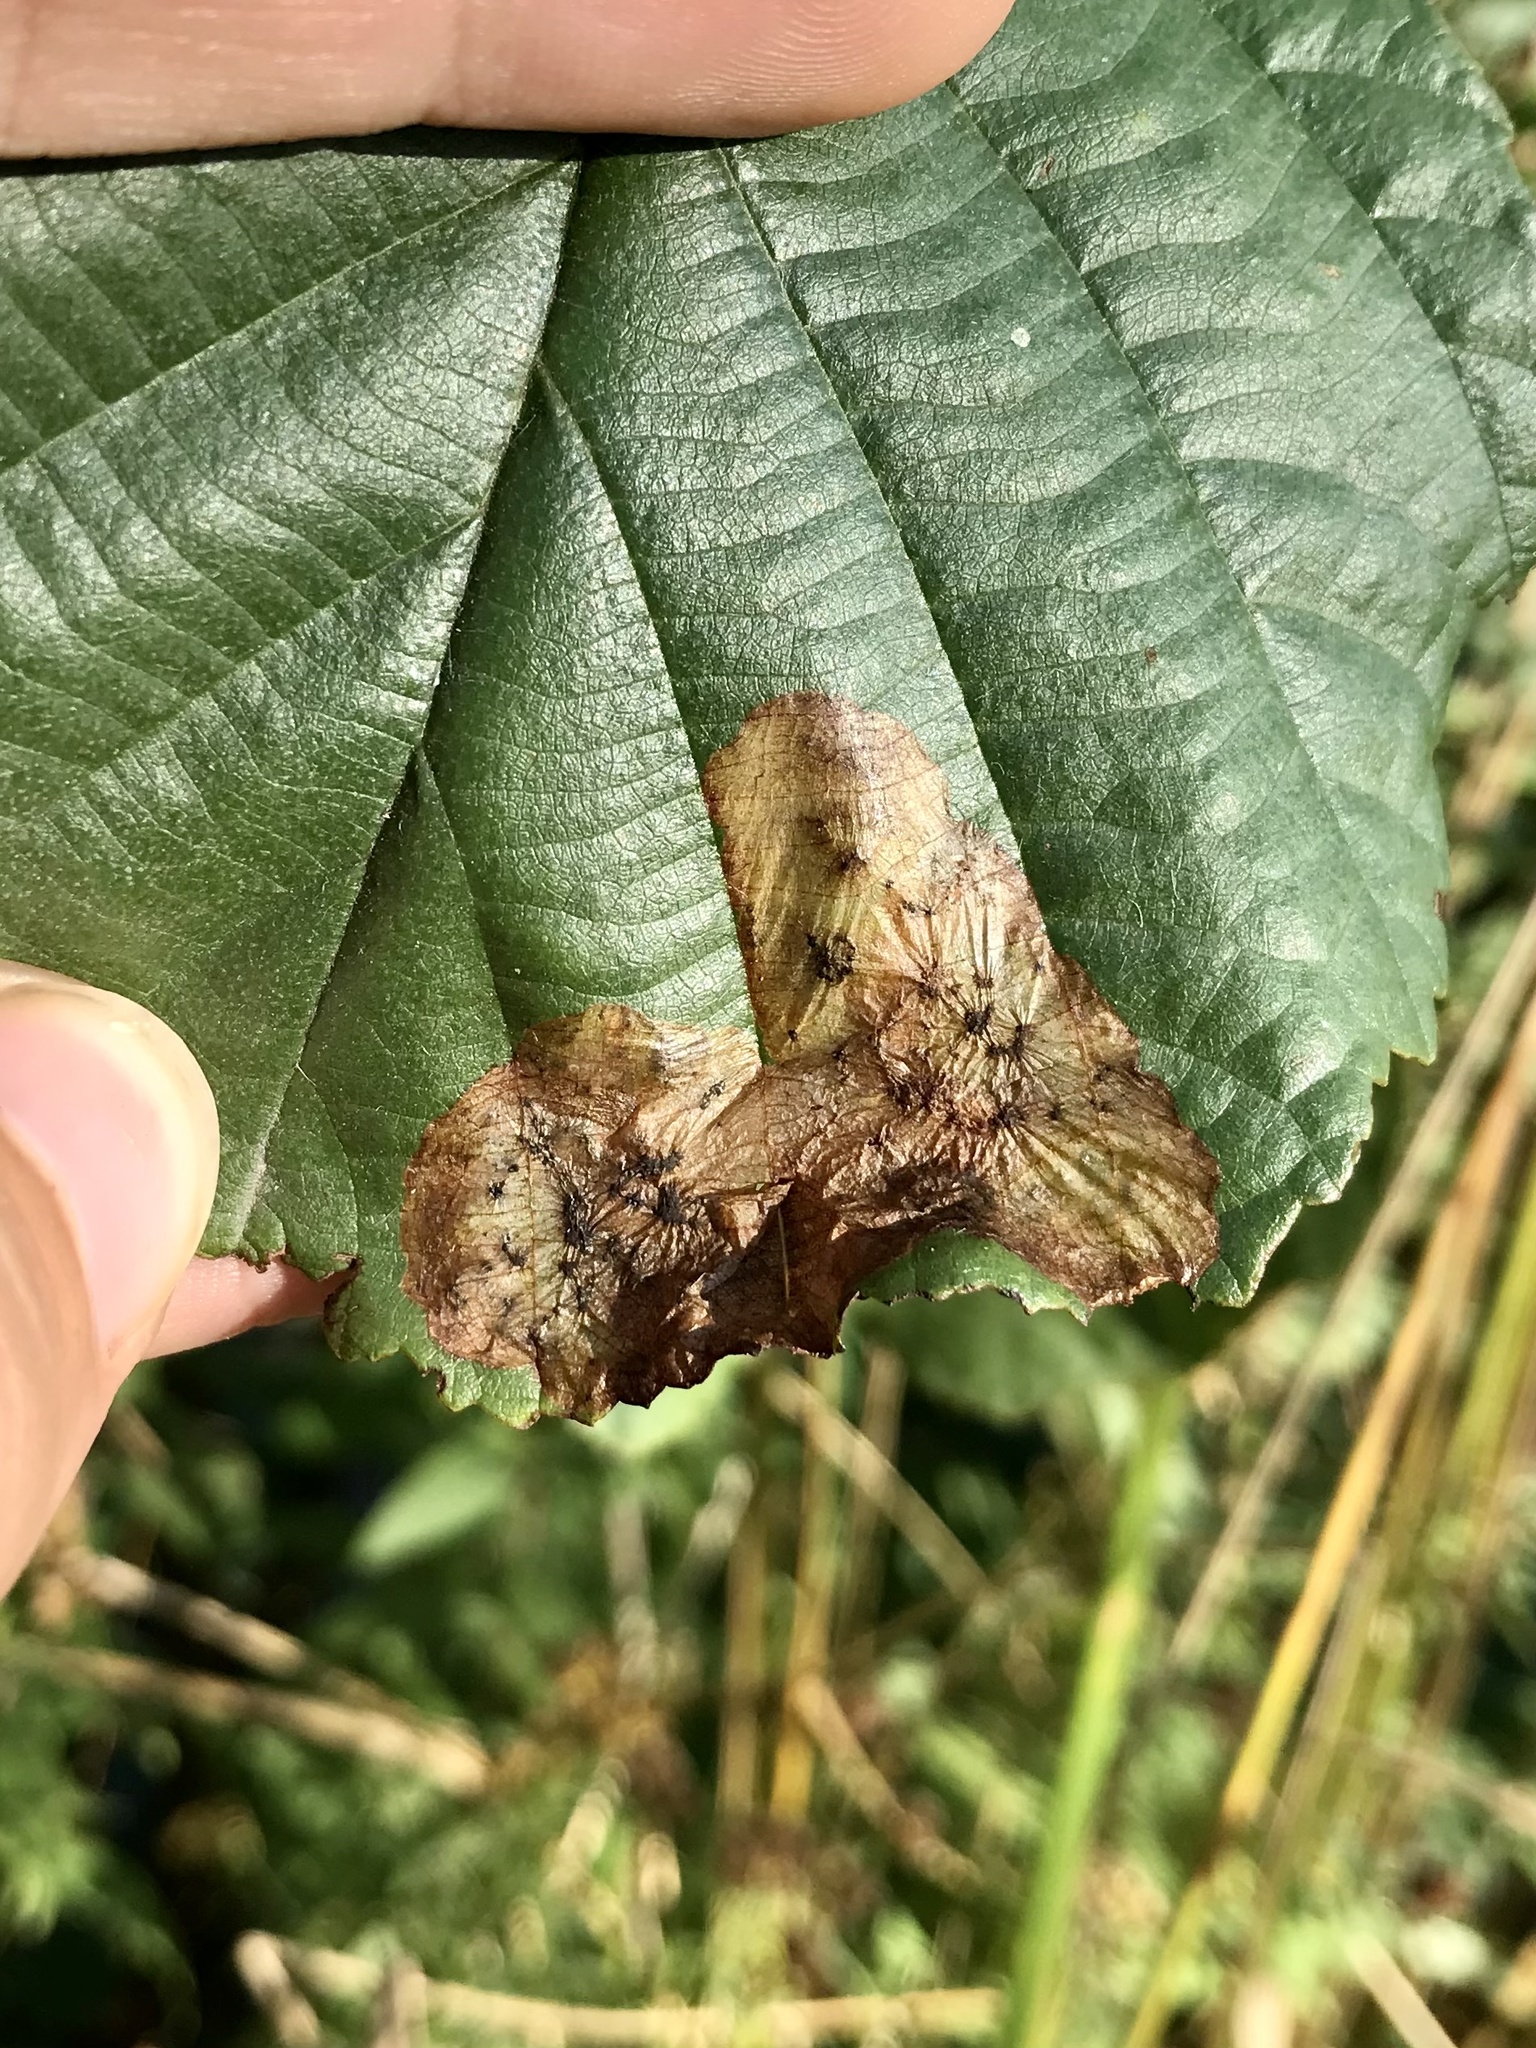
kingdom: Animalia
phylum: Arthropoda
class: Insecta
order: Hymenoptera
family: Tenthredinidae
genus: Fenusa
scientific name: Fenusa dohrnii
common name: European alder leafminer
